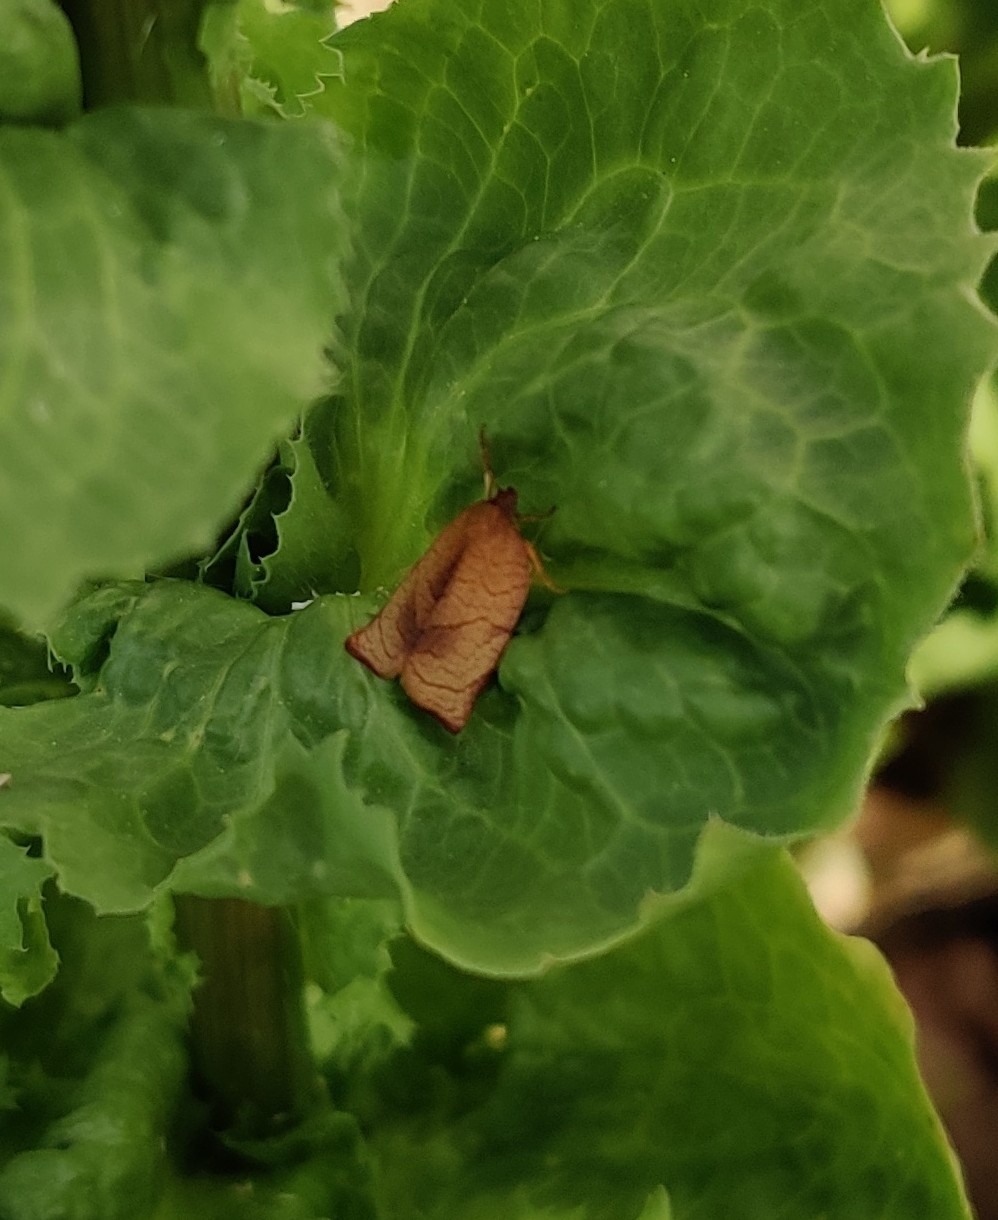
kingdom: Animalia
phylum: Arthropoda
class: Insecta
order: Lepidoptera
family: Tortricidae
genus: Cacoecimorpha
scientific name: Cacoecimorpha pronubana
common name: Carnation tortrix
